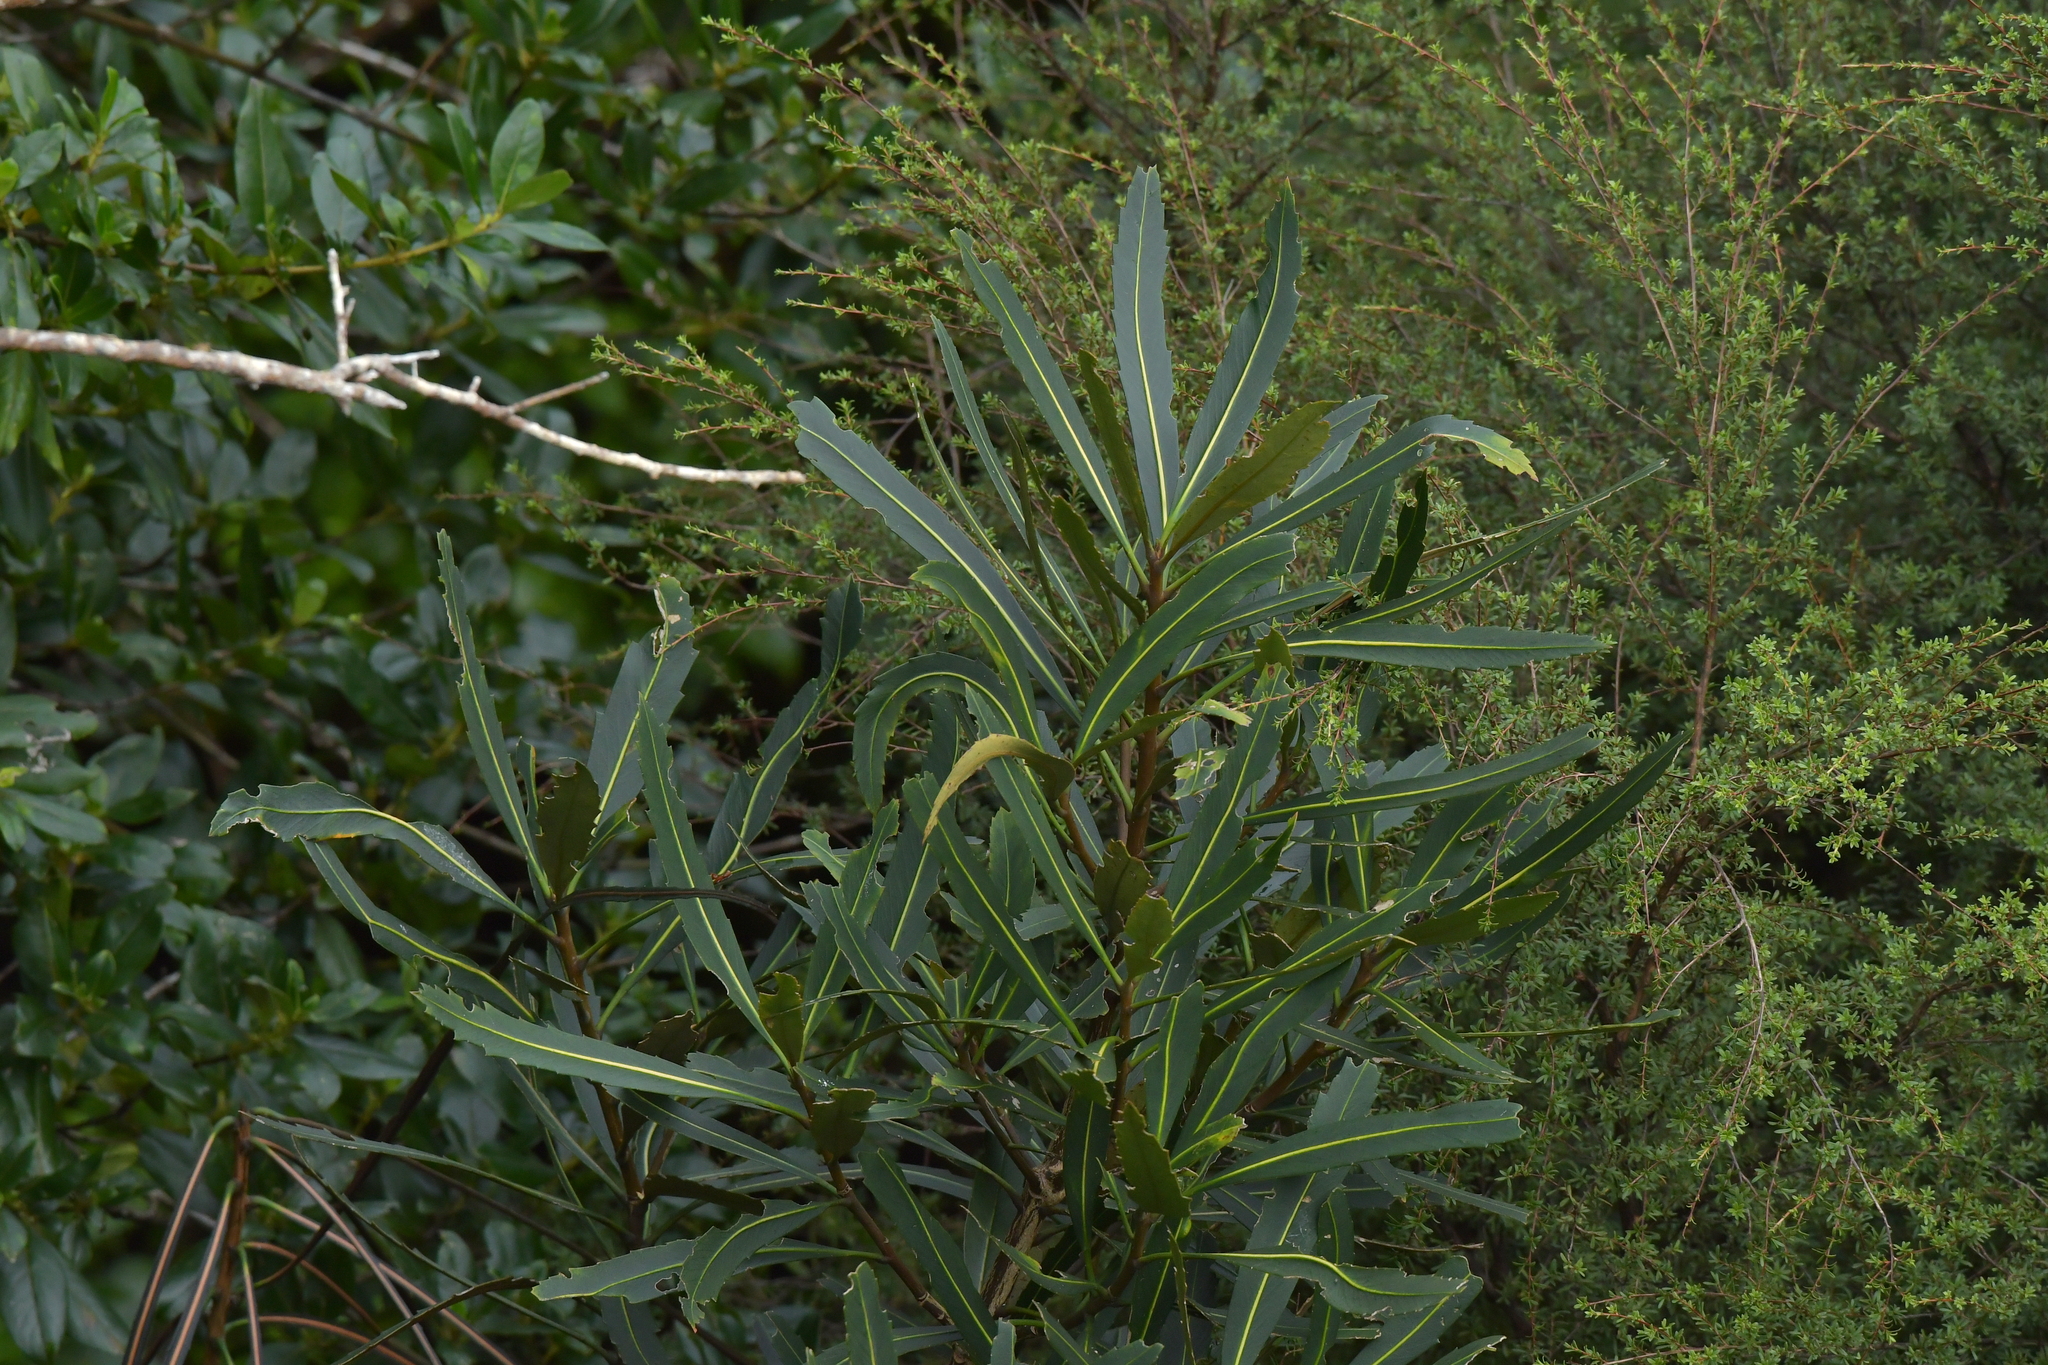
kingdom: Plantae
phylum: Tracheophyta
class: Magnoliopsida
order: Apiales
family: Araliaceae
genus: Pseudopanax
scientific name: Pseudopanax crassifolius
